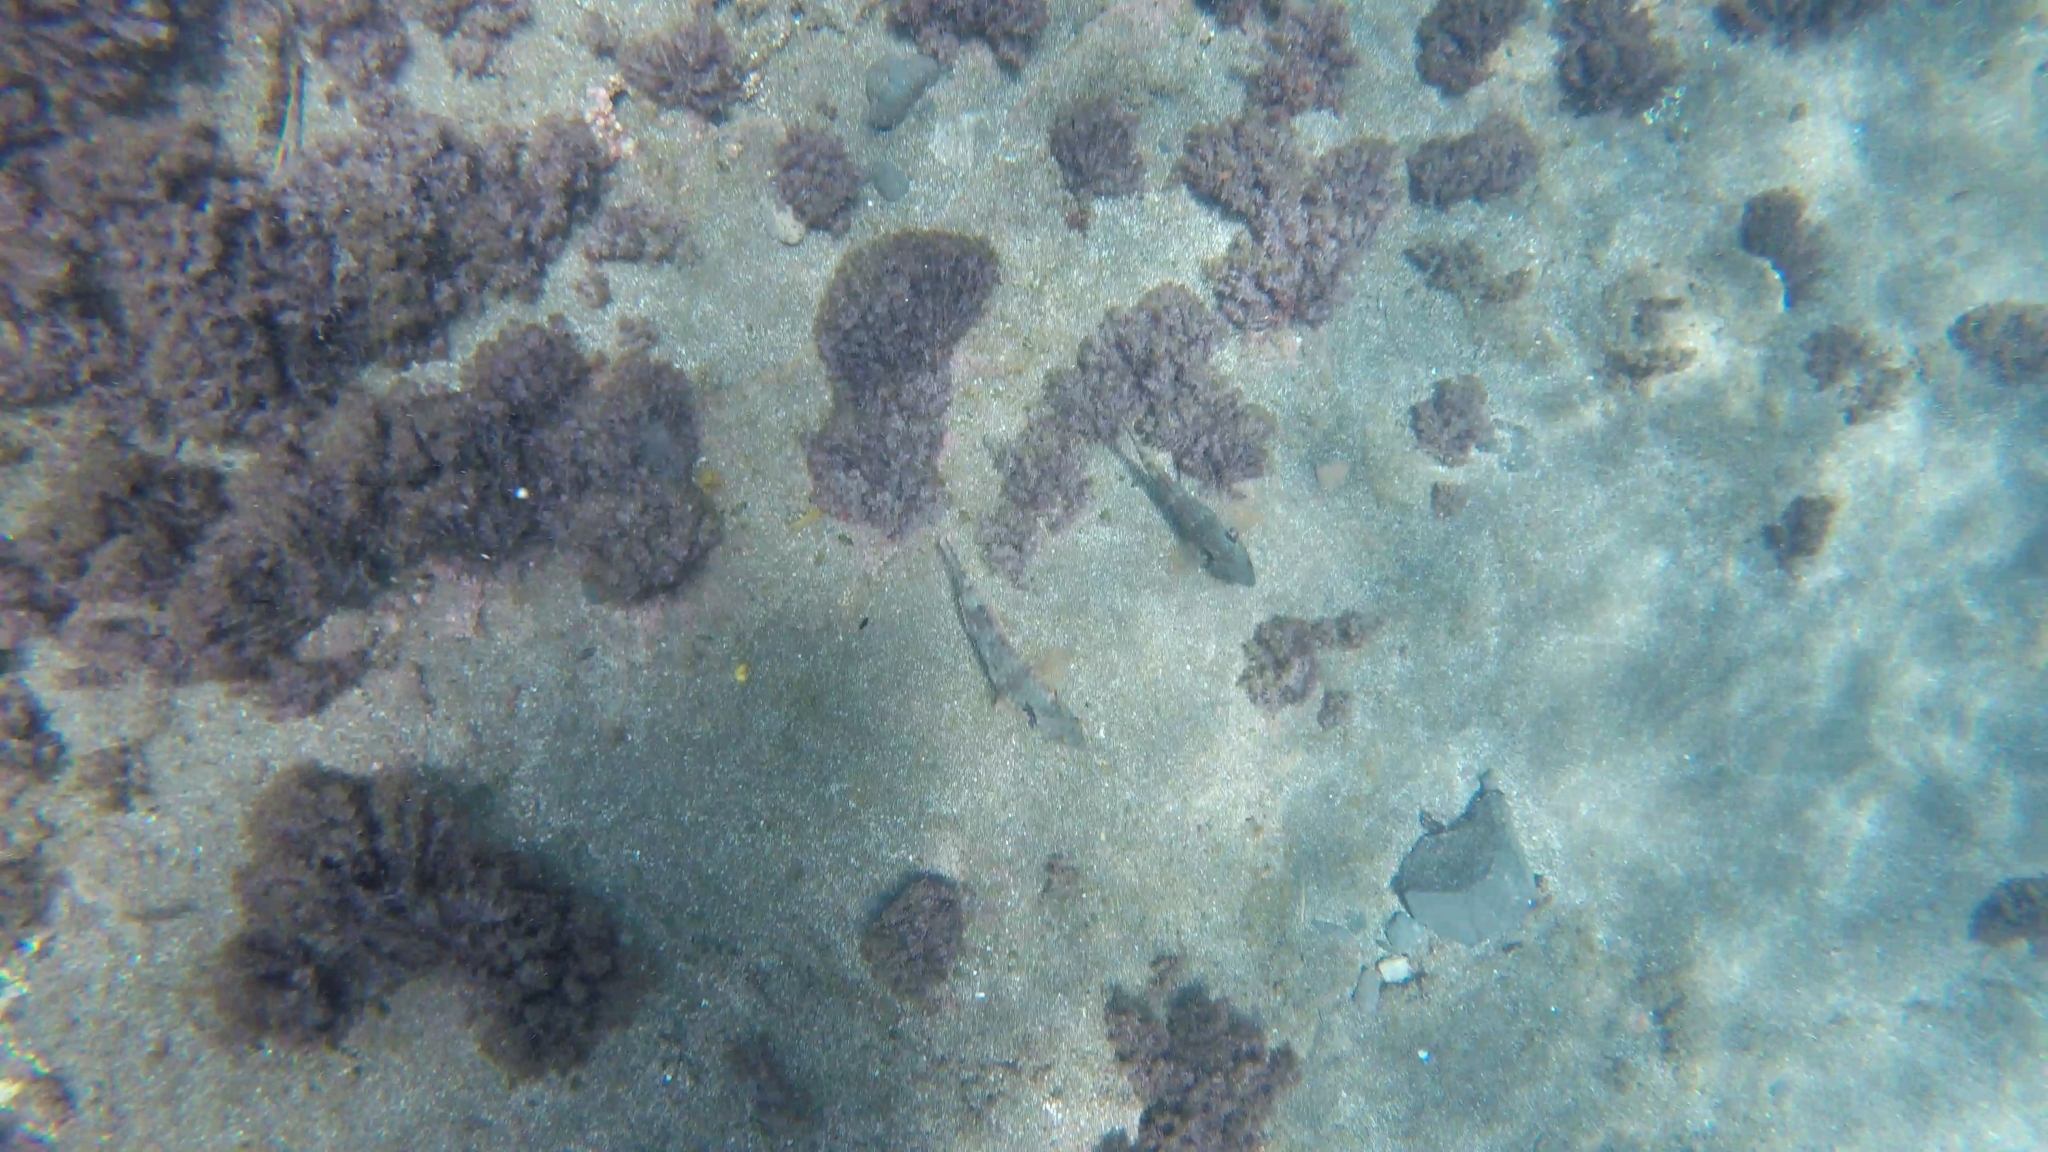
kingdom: Animalia
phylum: Chordata
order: Perciformes
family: Scaridae
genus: Sparisoma
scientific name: Sparisoma cretense
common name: Parrotfish
